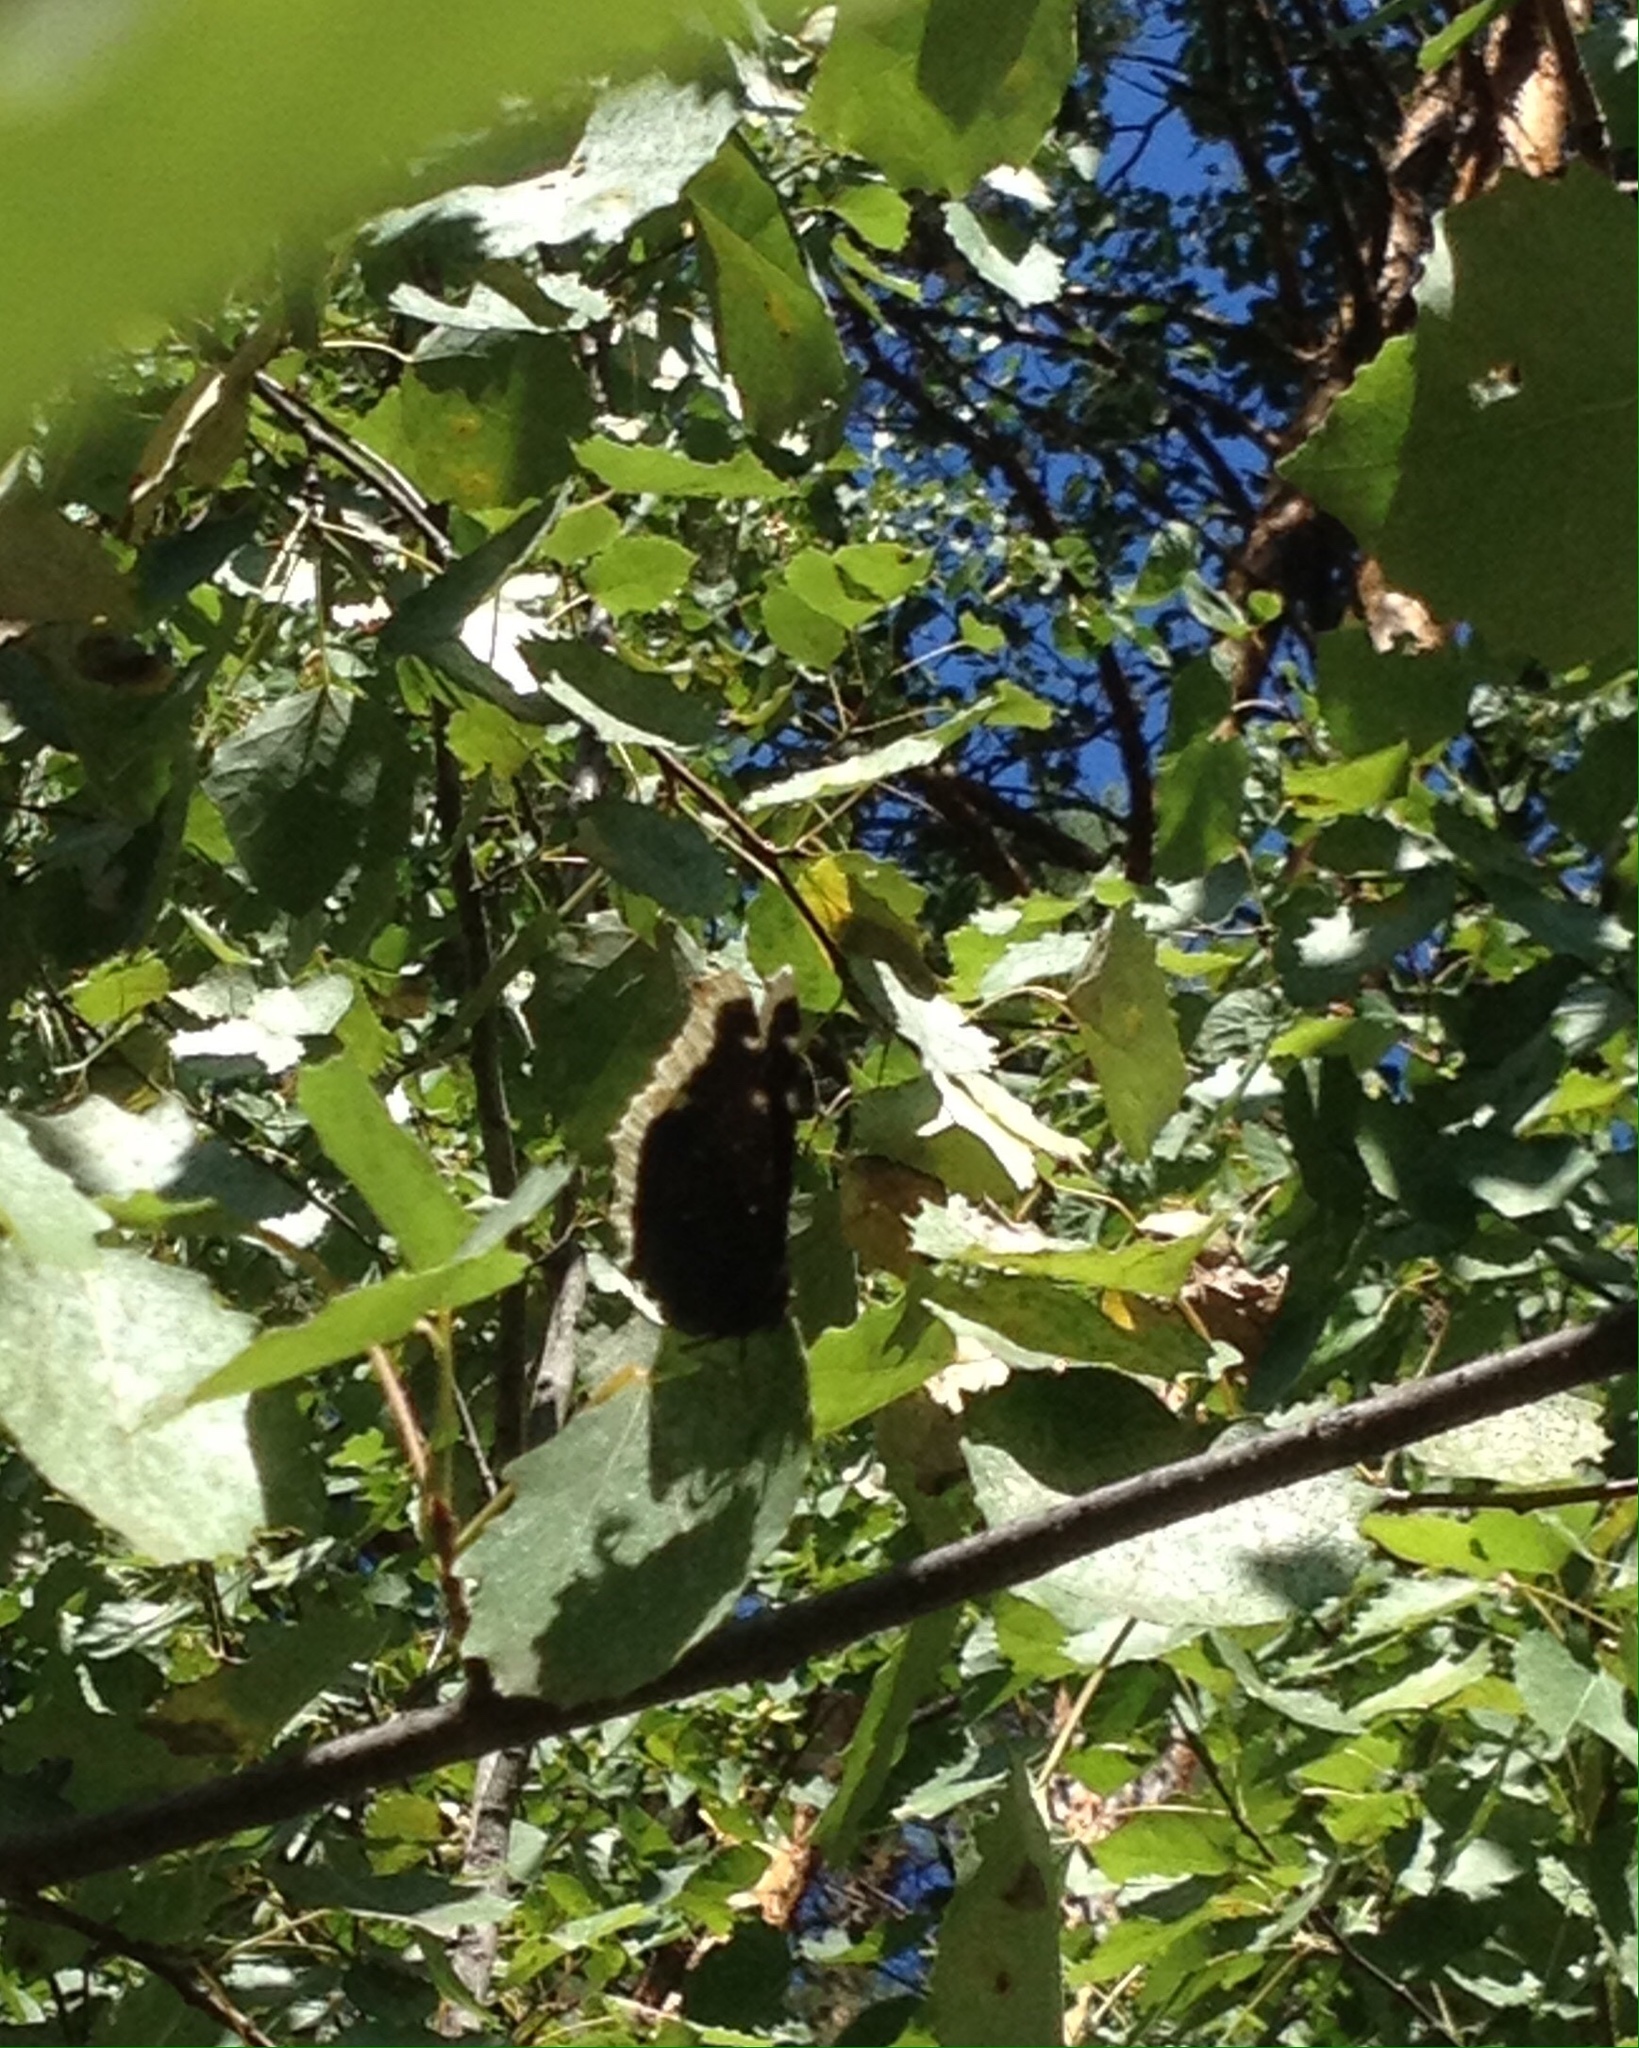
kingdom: Animalia
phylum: Arthropoda
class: Insecta
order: Lepidoptera
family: Nymphalidae
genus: Nymphalis
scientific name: Nymphalis antiopa
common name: Camberwell beauty
